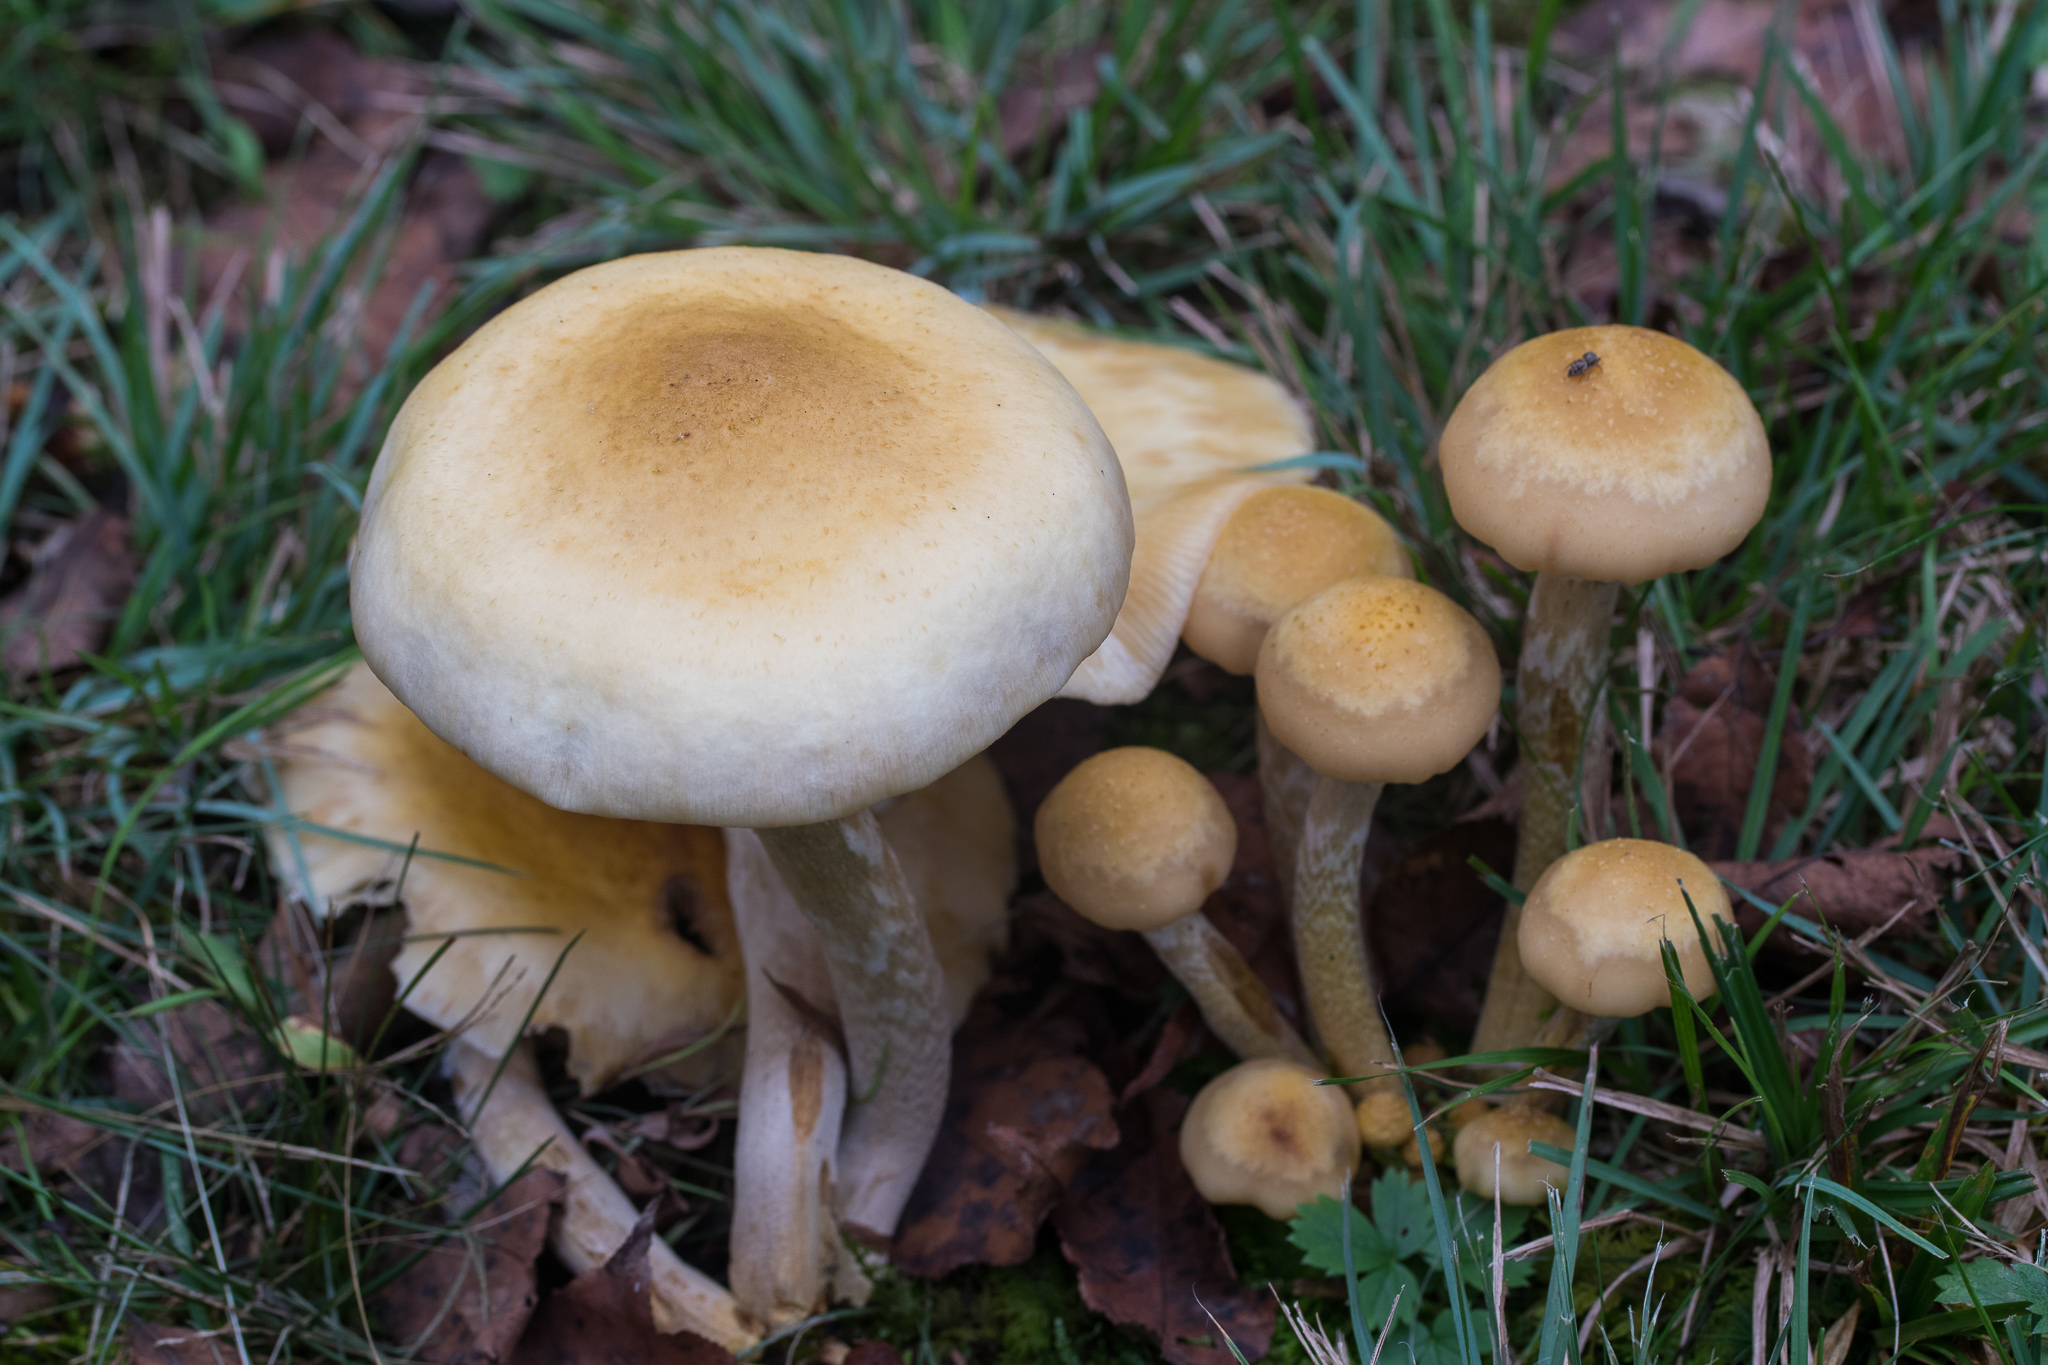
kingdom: Fungi
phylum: Basidiomycota
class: Agaricomycetes
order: Agaricales
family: Physalacriaceae
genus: Armillaria
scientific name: Armillaria mellea
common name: Honey fungus
